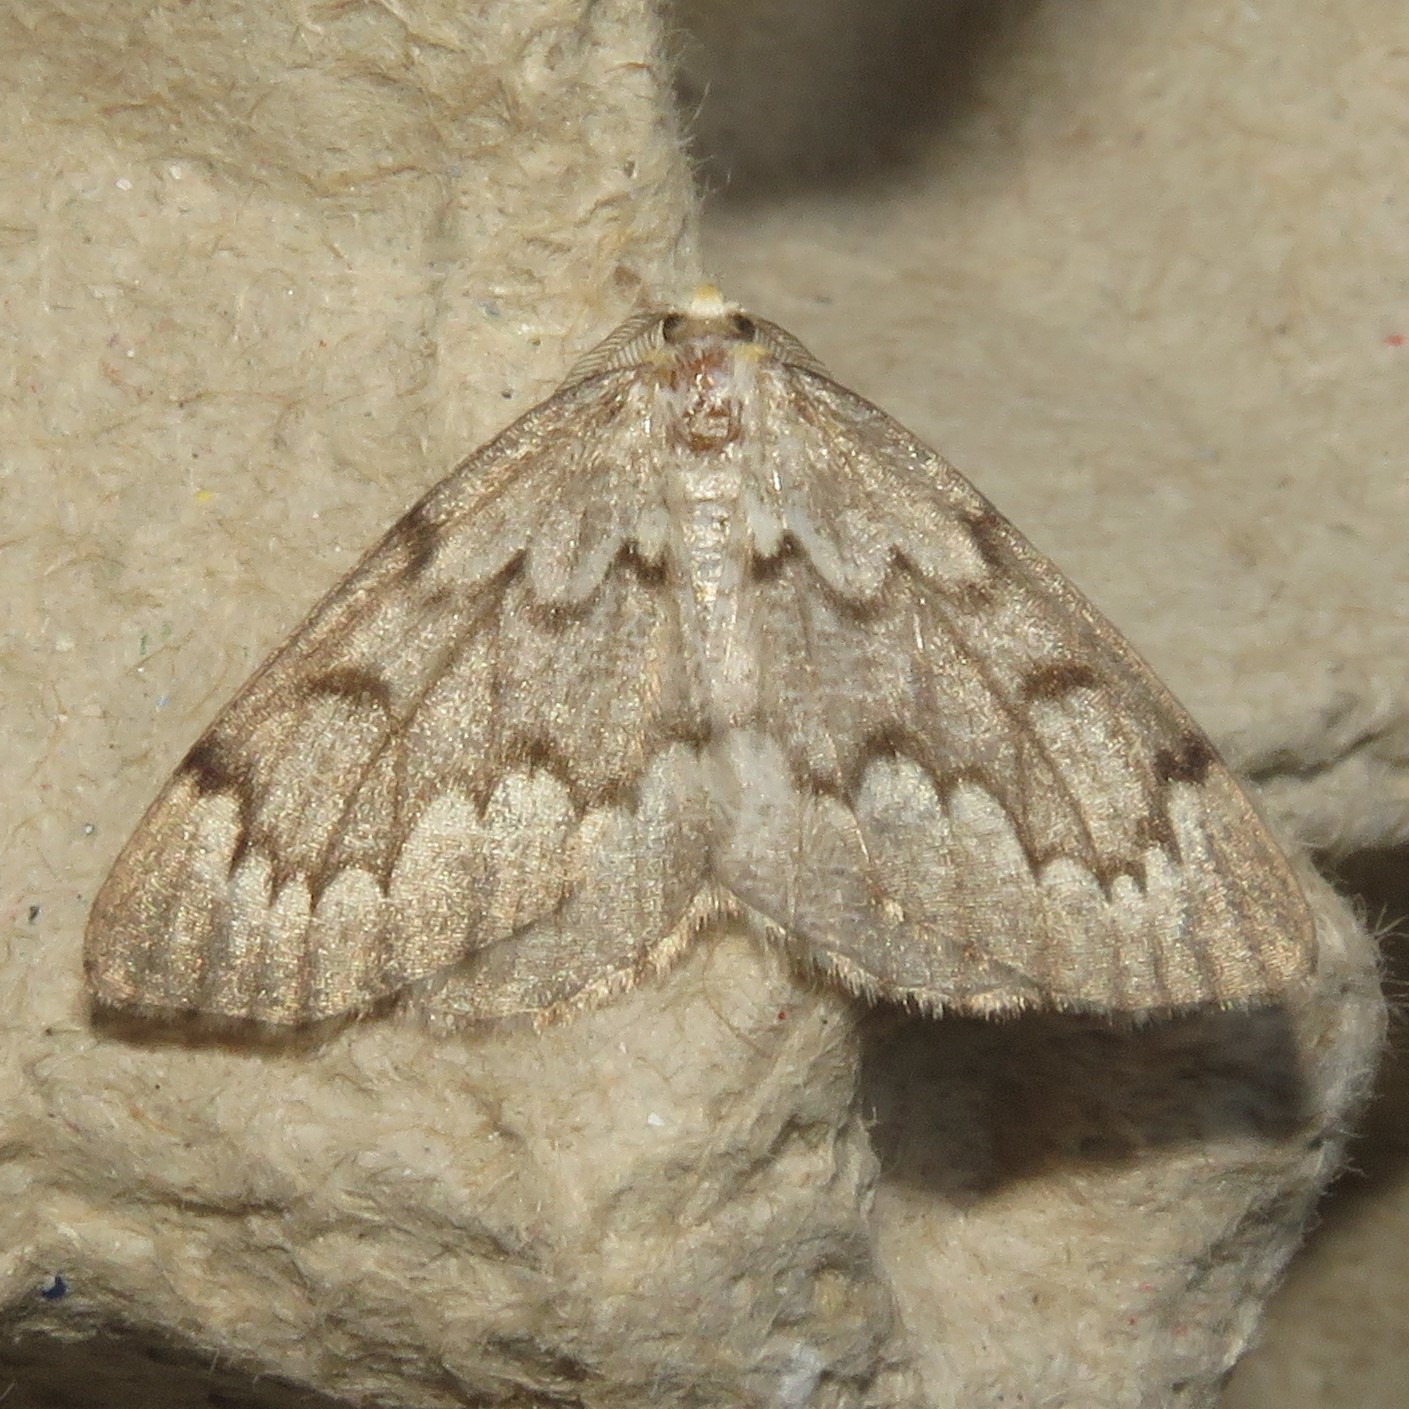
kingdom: Animalia
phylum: Arthropoda
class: Insecta
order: Lepidoptera
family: Geometridae
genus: Nepytia
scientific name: Nepytia canosaria
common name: False hemlock looper
